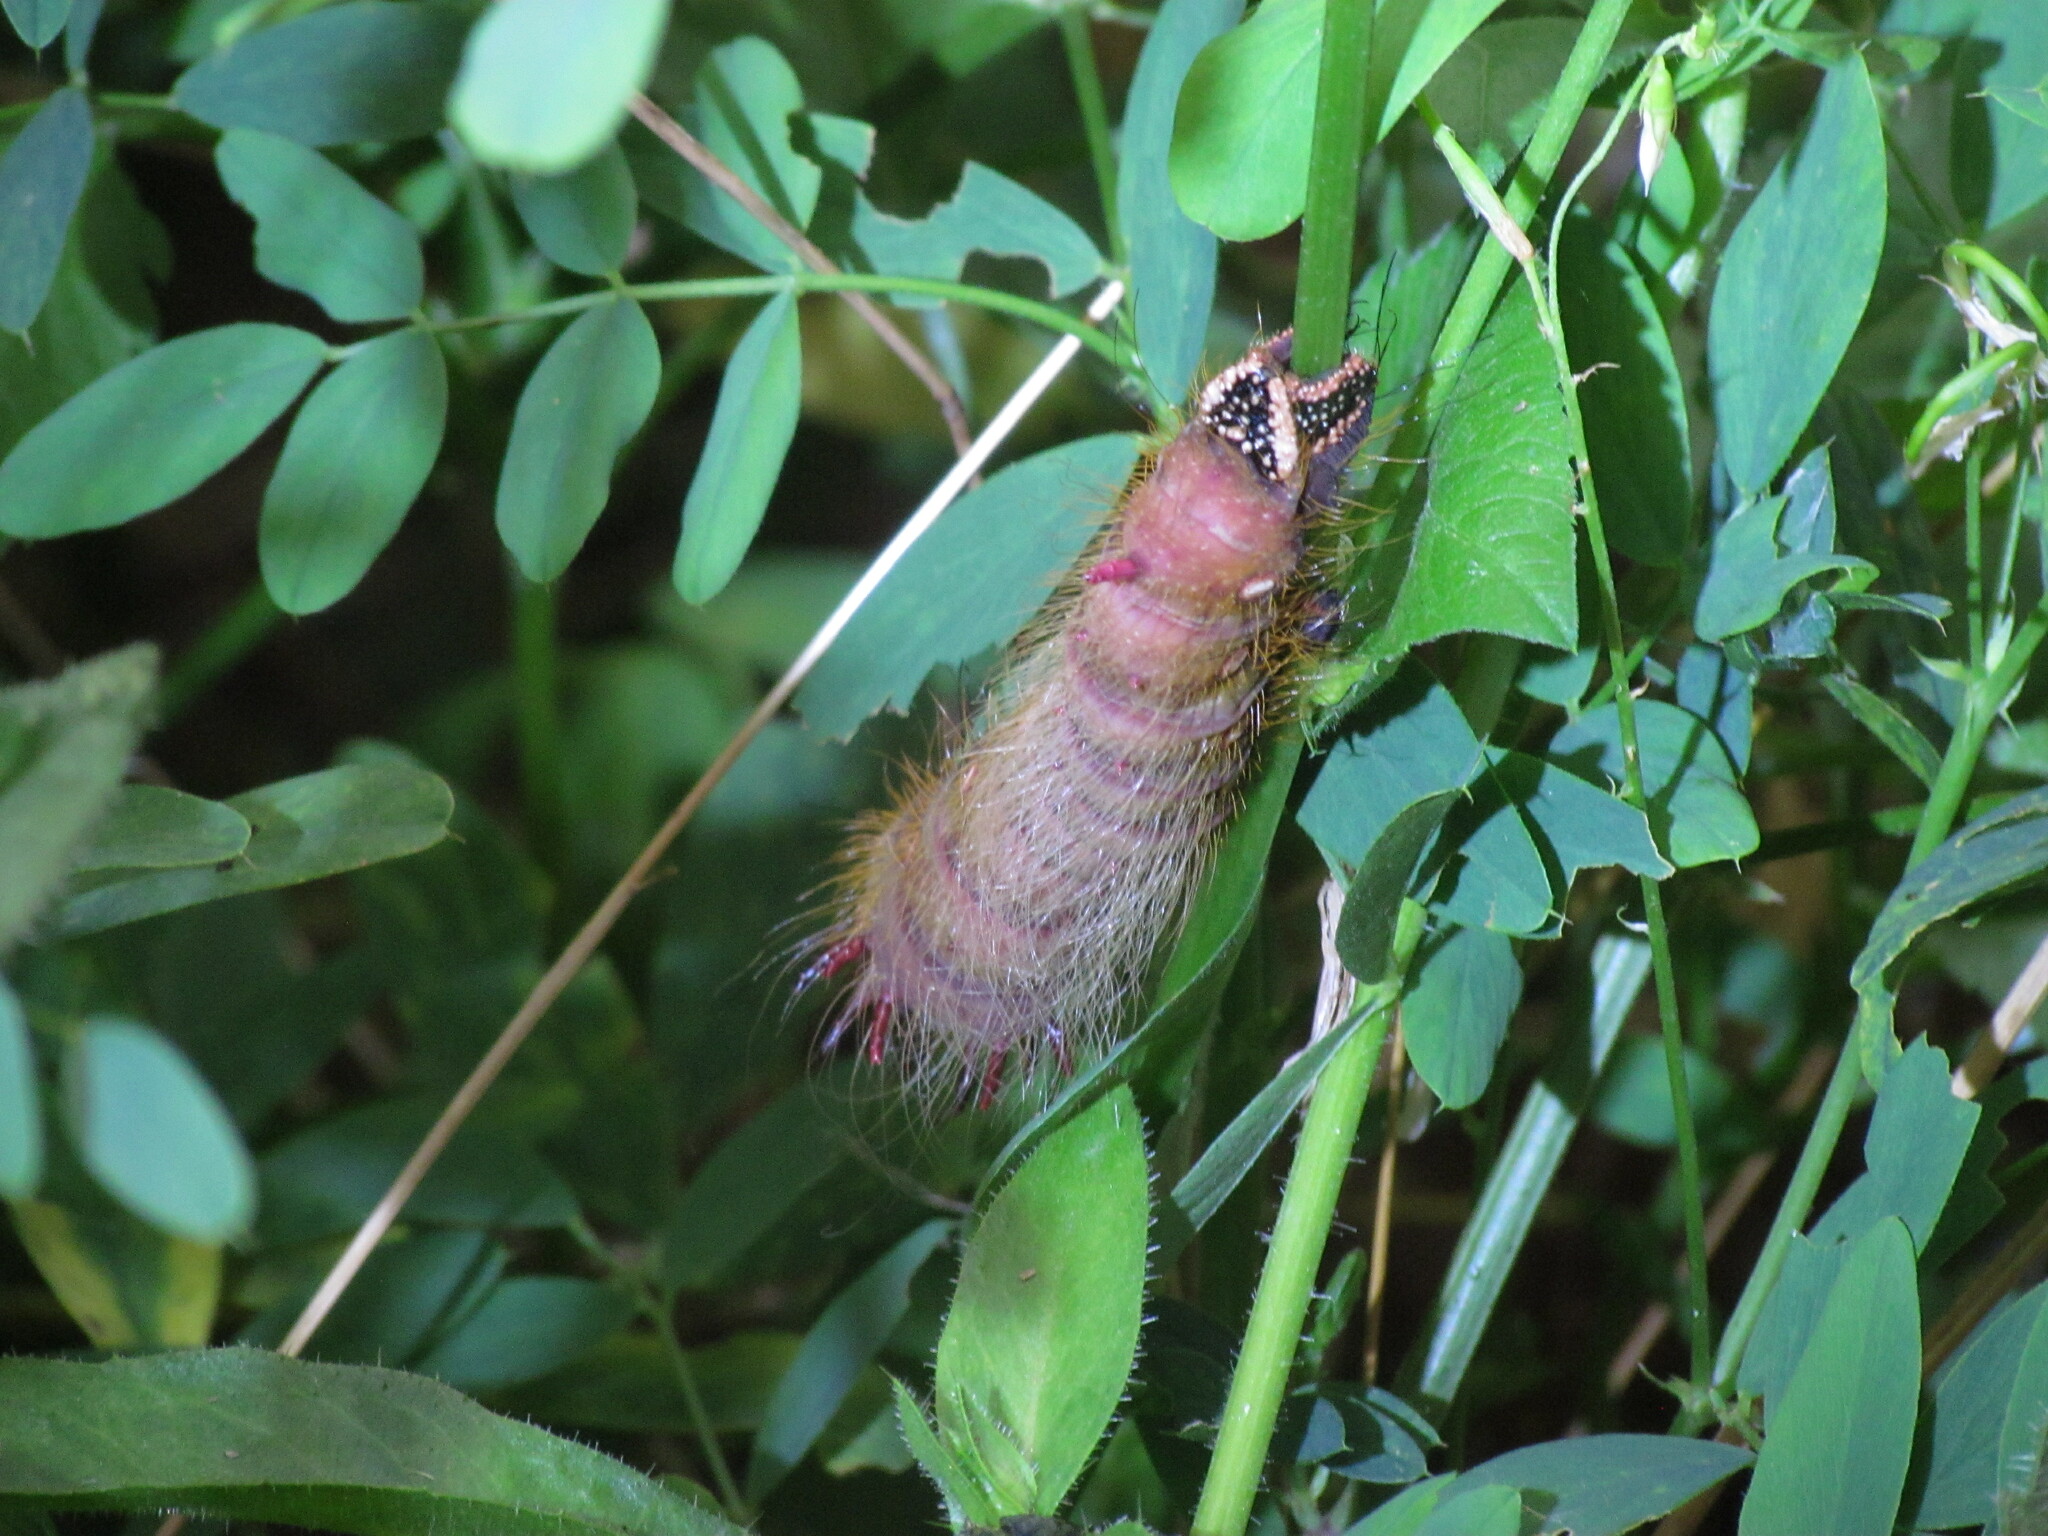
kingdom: Animalia
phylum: Arthropoda
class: Insecta
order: Lepidoptera
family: Saturniidae
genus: Eacles
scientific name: Eacles imperialis
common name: Imperial moth
